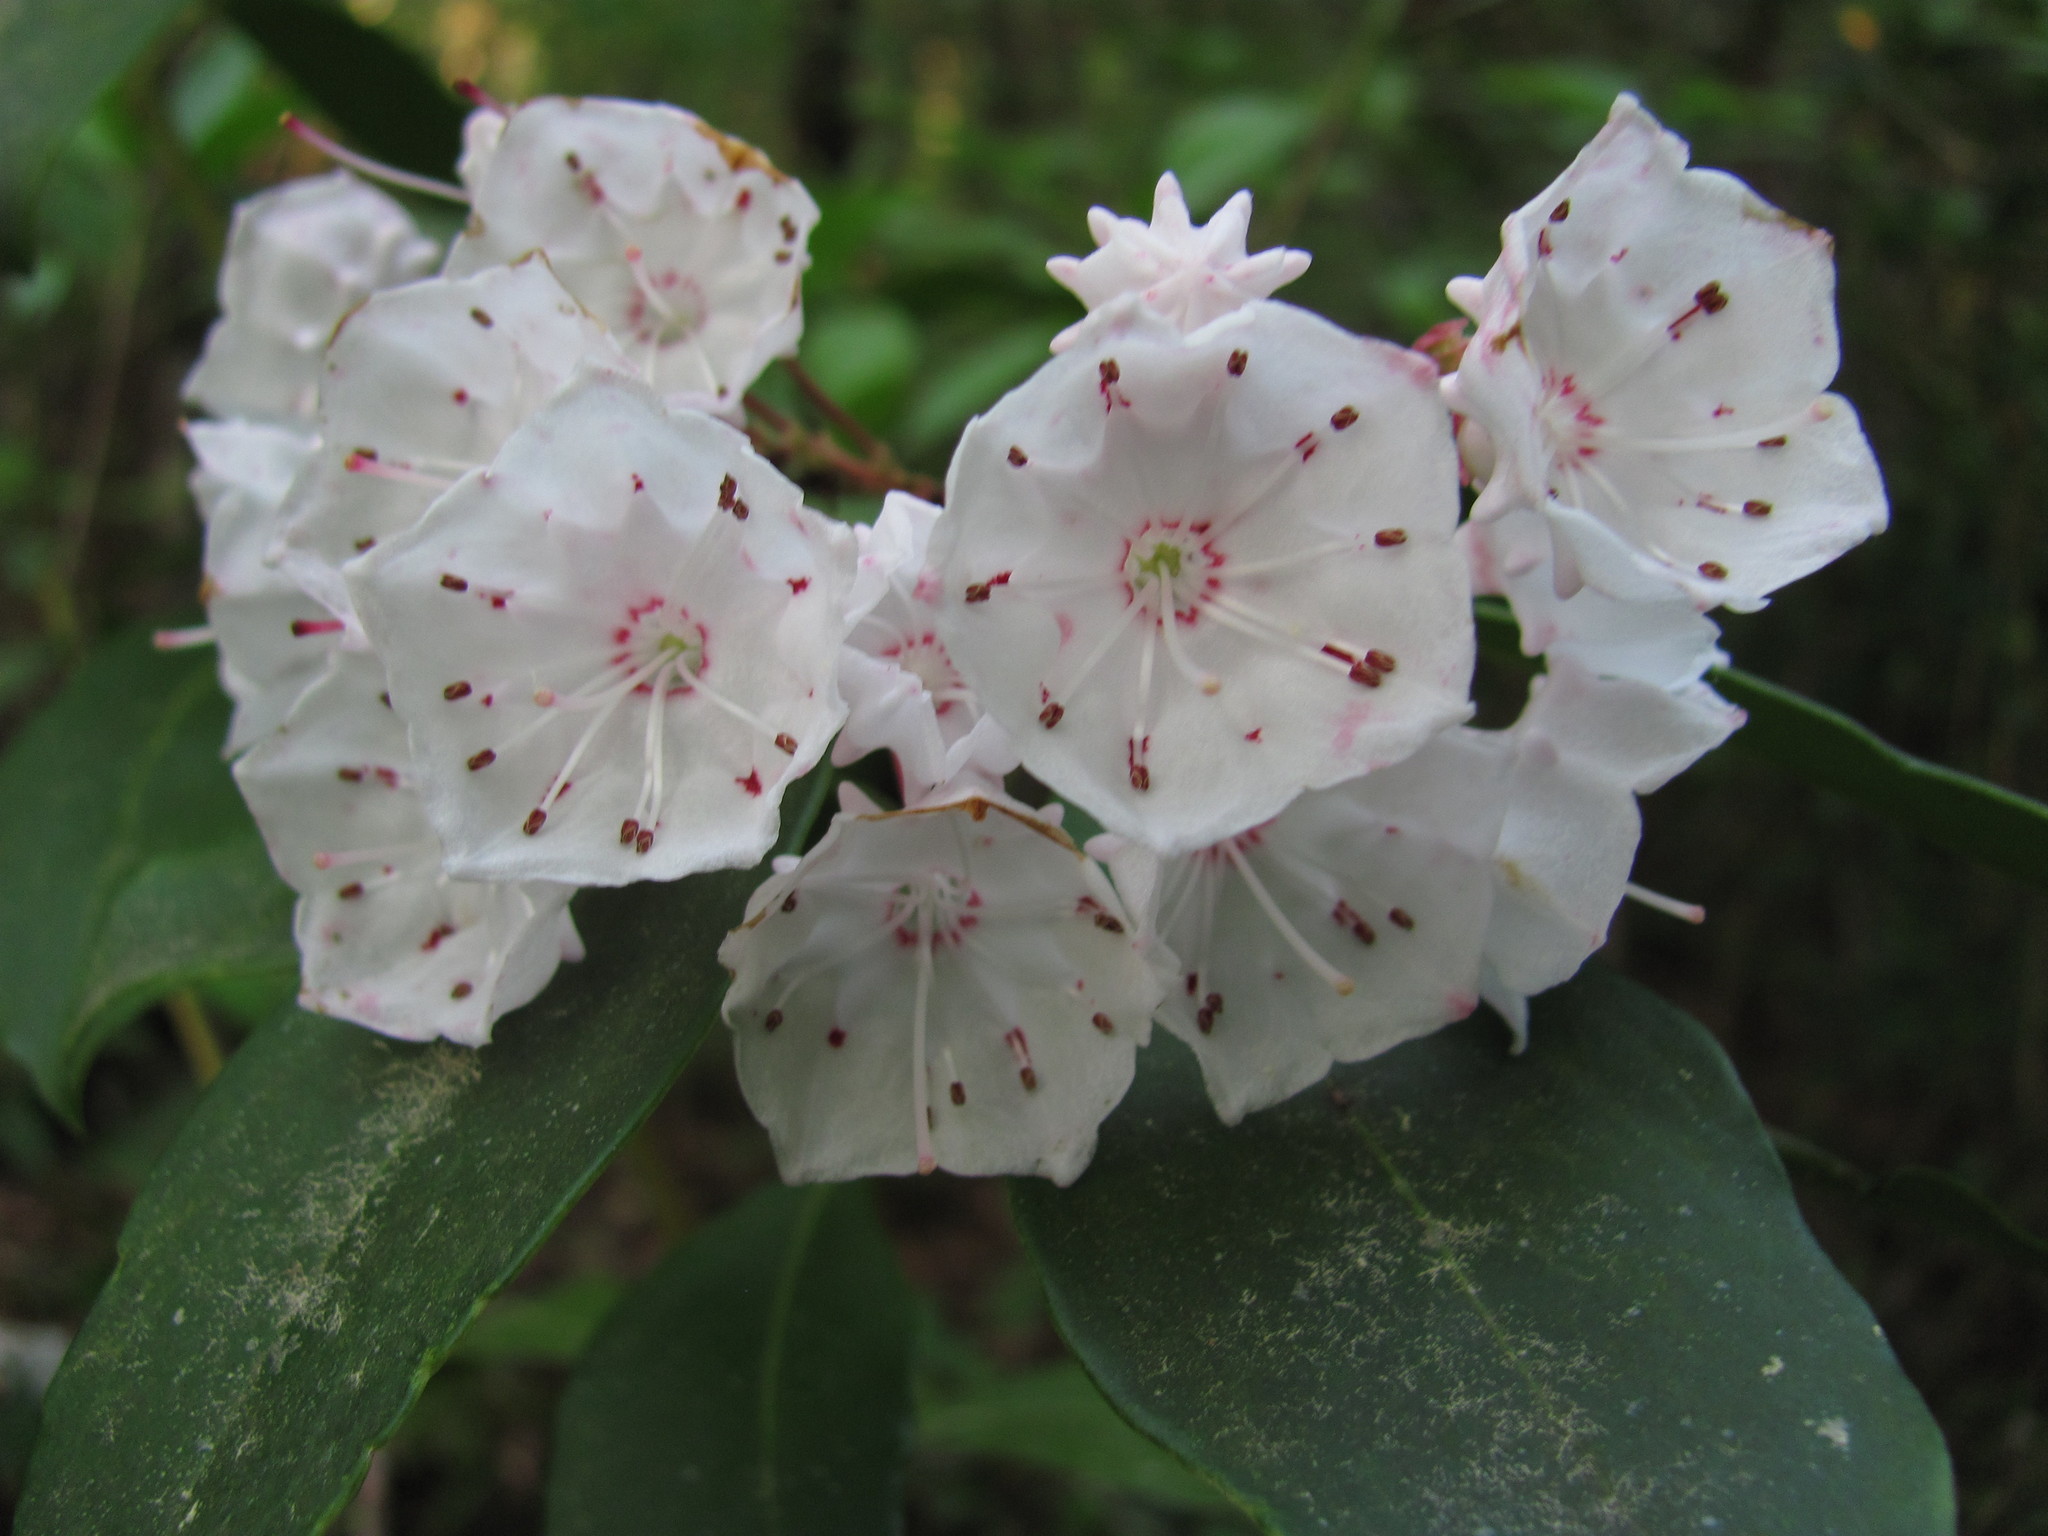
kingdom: Plantae
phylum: Tracheophyta
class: Magnoliopsida
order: Ericales
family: Ericaceae
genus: Kalmia
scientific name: Kalmia latifolia
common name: Mountain-laurel
